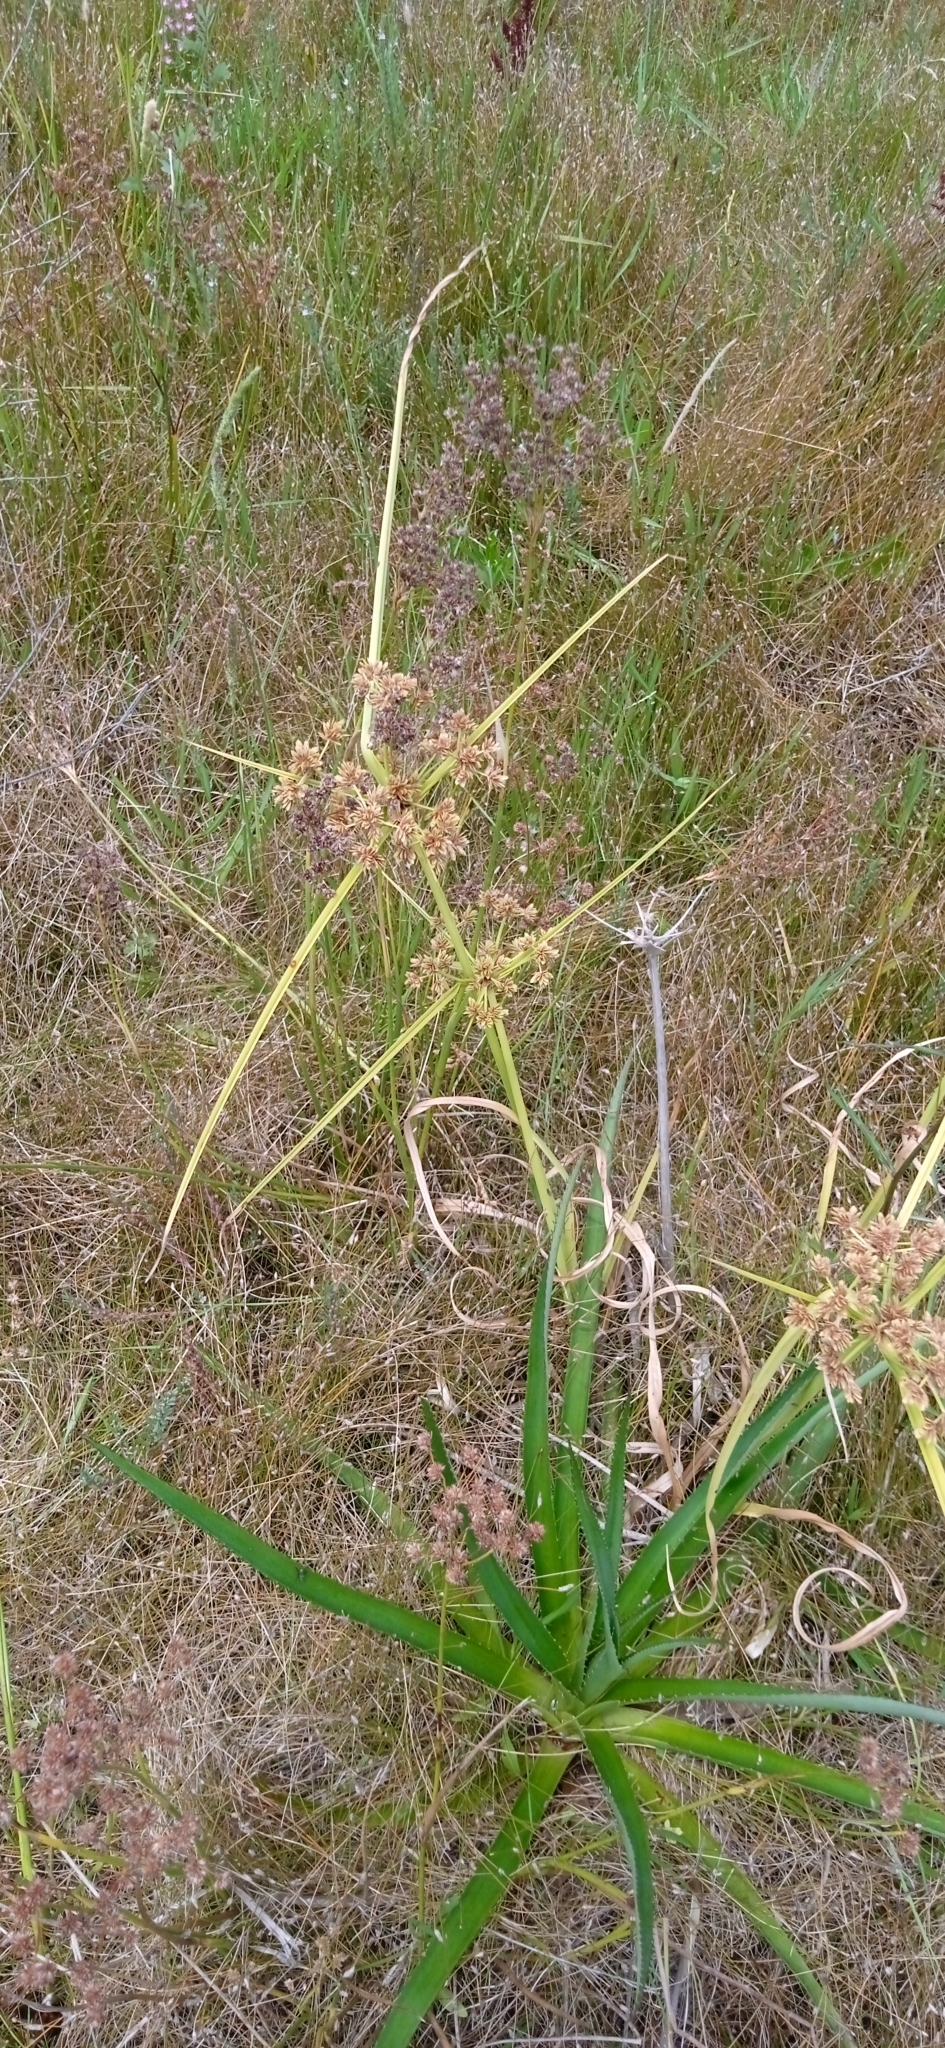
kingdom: Plantae
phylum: Tracheophyta
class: Liliopsida
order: Poales
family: Cyperaceae
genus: Cyperus
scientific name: Cyperus eragrostis
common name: Tall flatsedge
